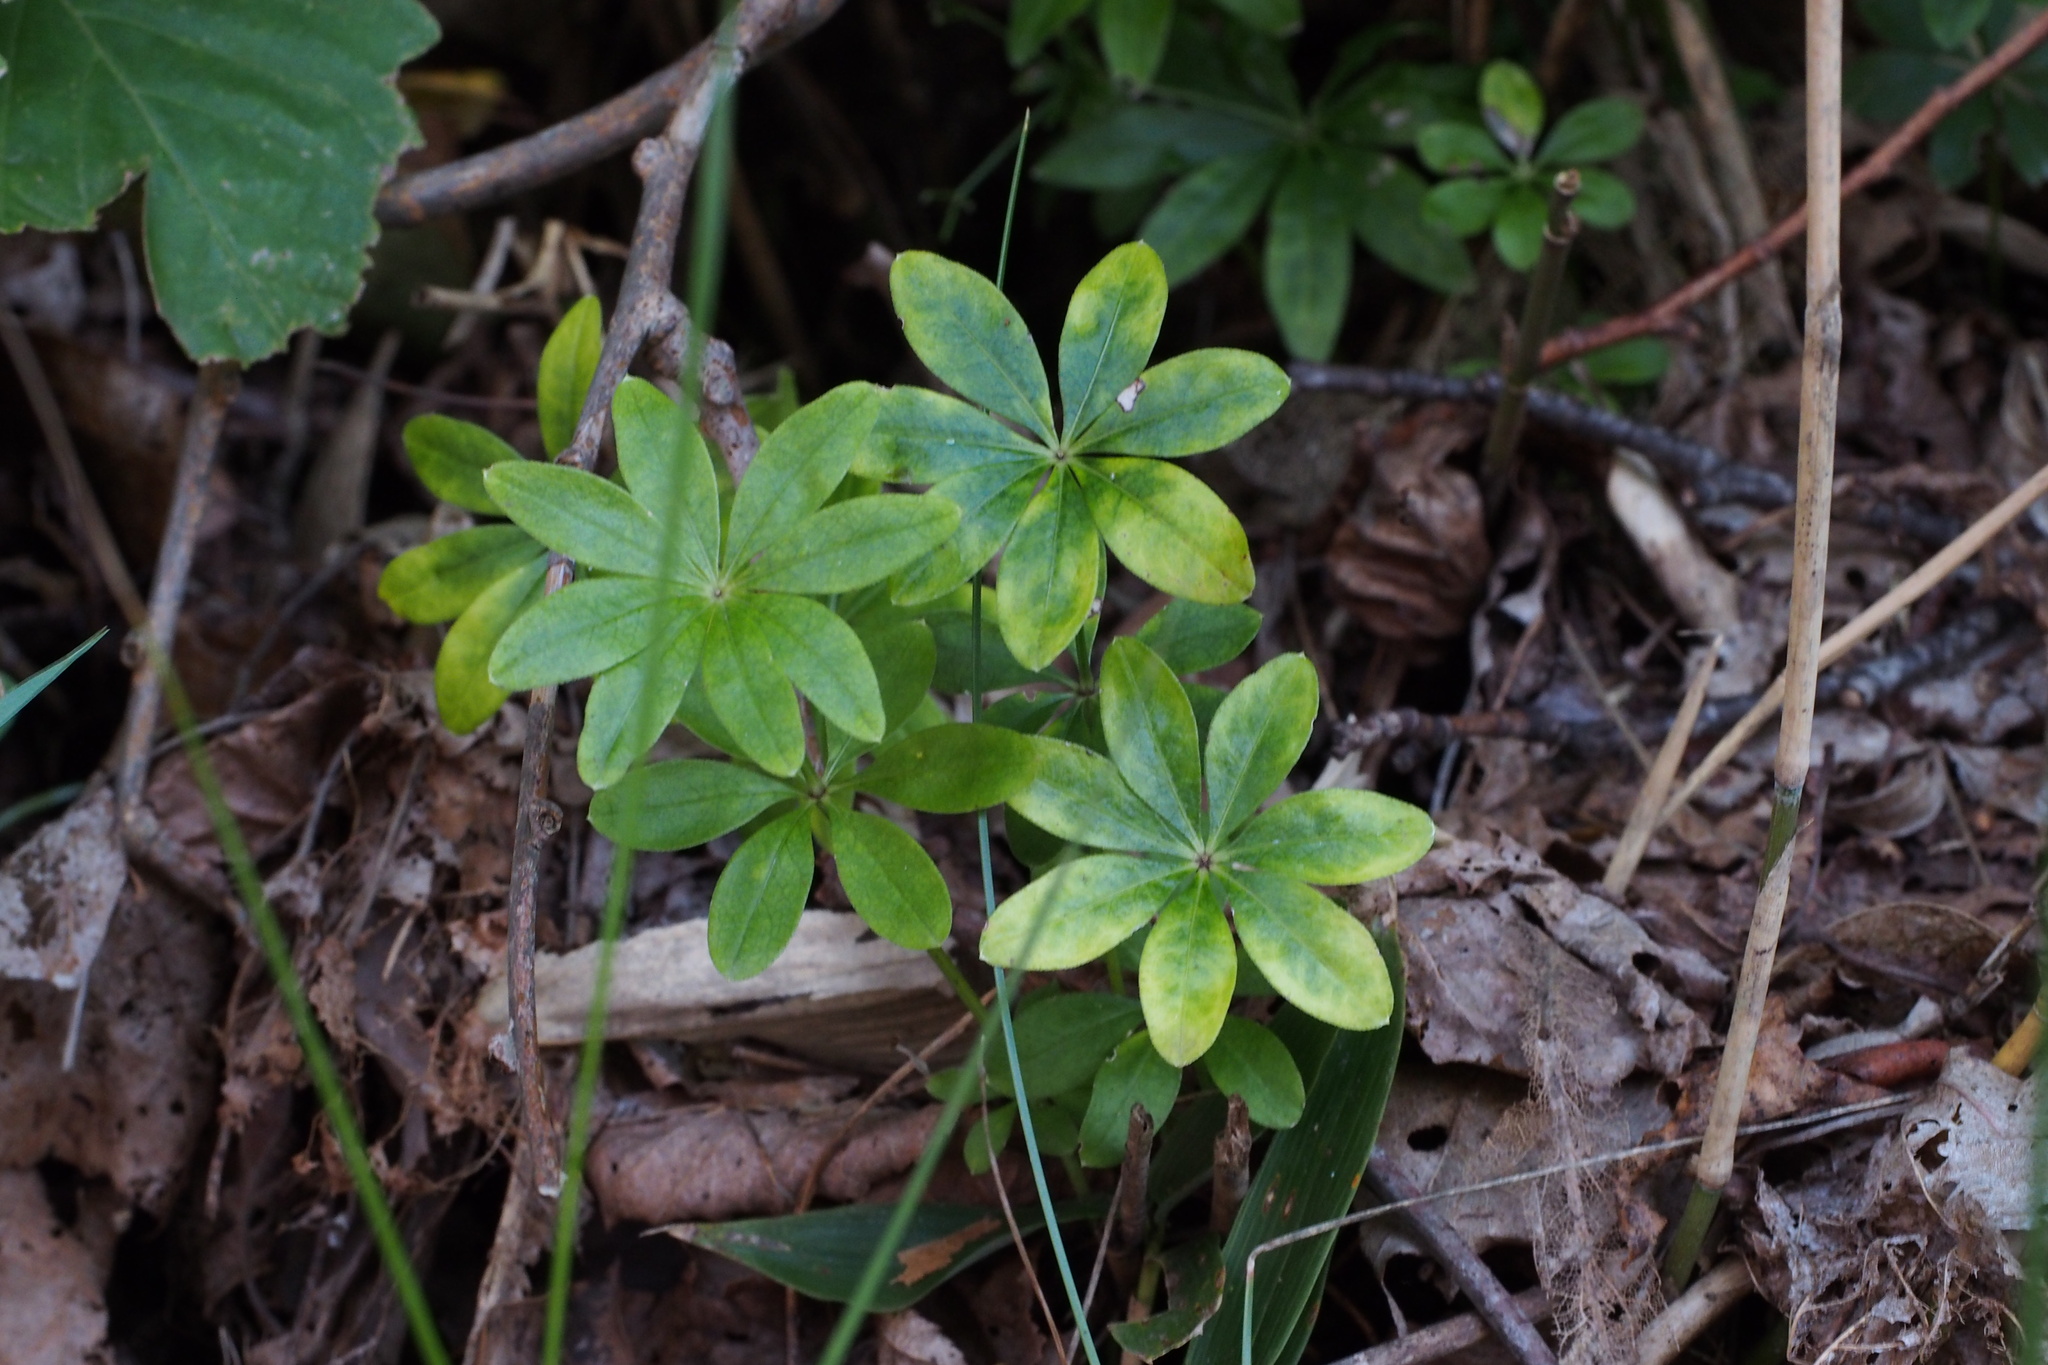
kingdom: Plantae
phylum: Tracheophyta
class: Magnoliopsida
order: Gentianales
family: Rubiaceae
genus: Galium
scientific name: Galium odoratum
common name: Sweet woodruff
